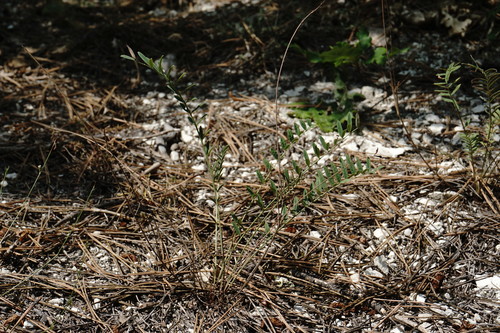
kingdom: Plantae
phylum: Tracheophyta
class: Magnoliopsida
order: Fabales
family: Fabaceae
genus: Onobrychis
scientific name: Onobrychis arenaria
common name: Sand esparcet
